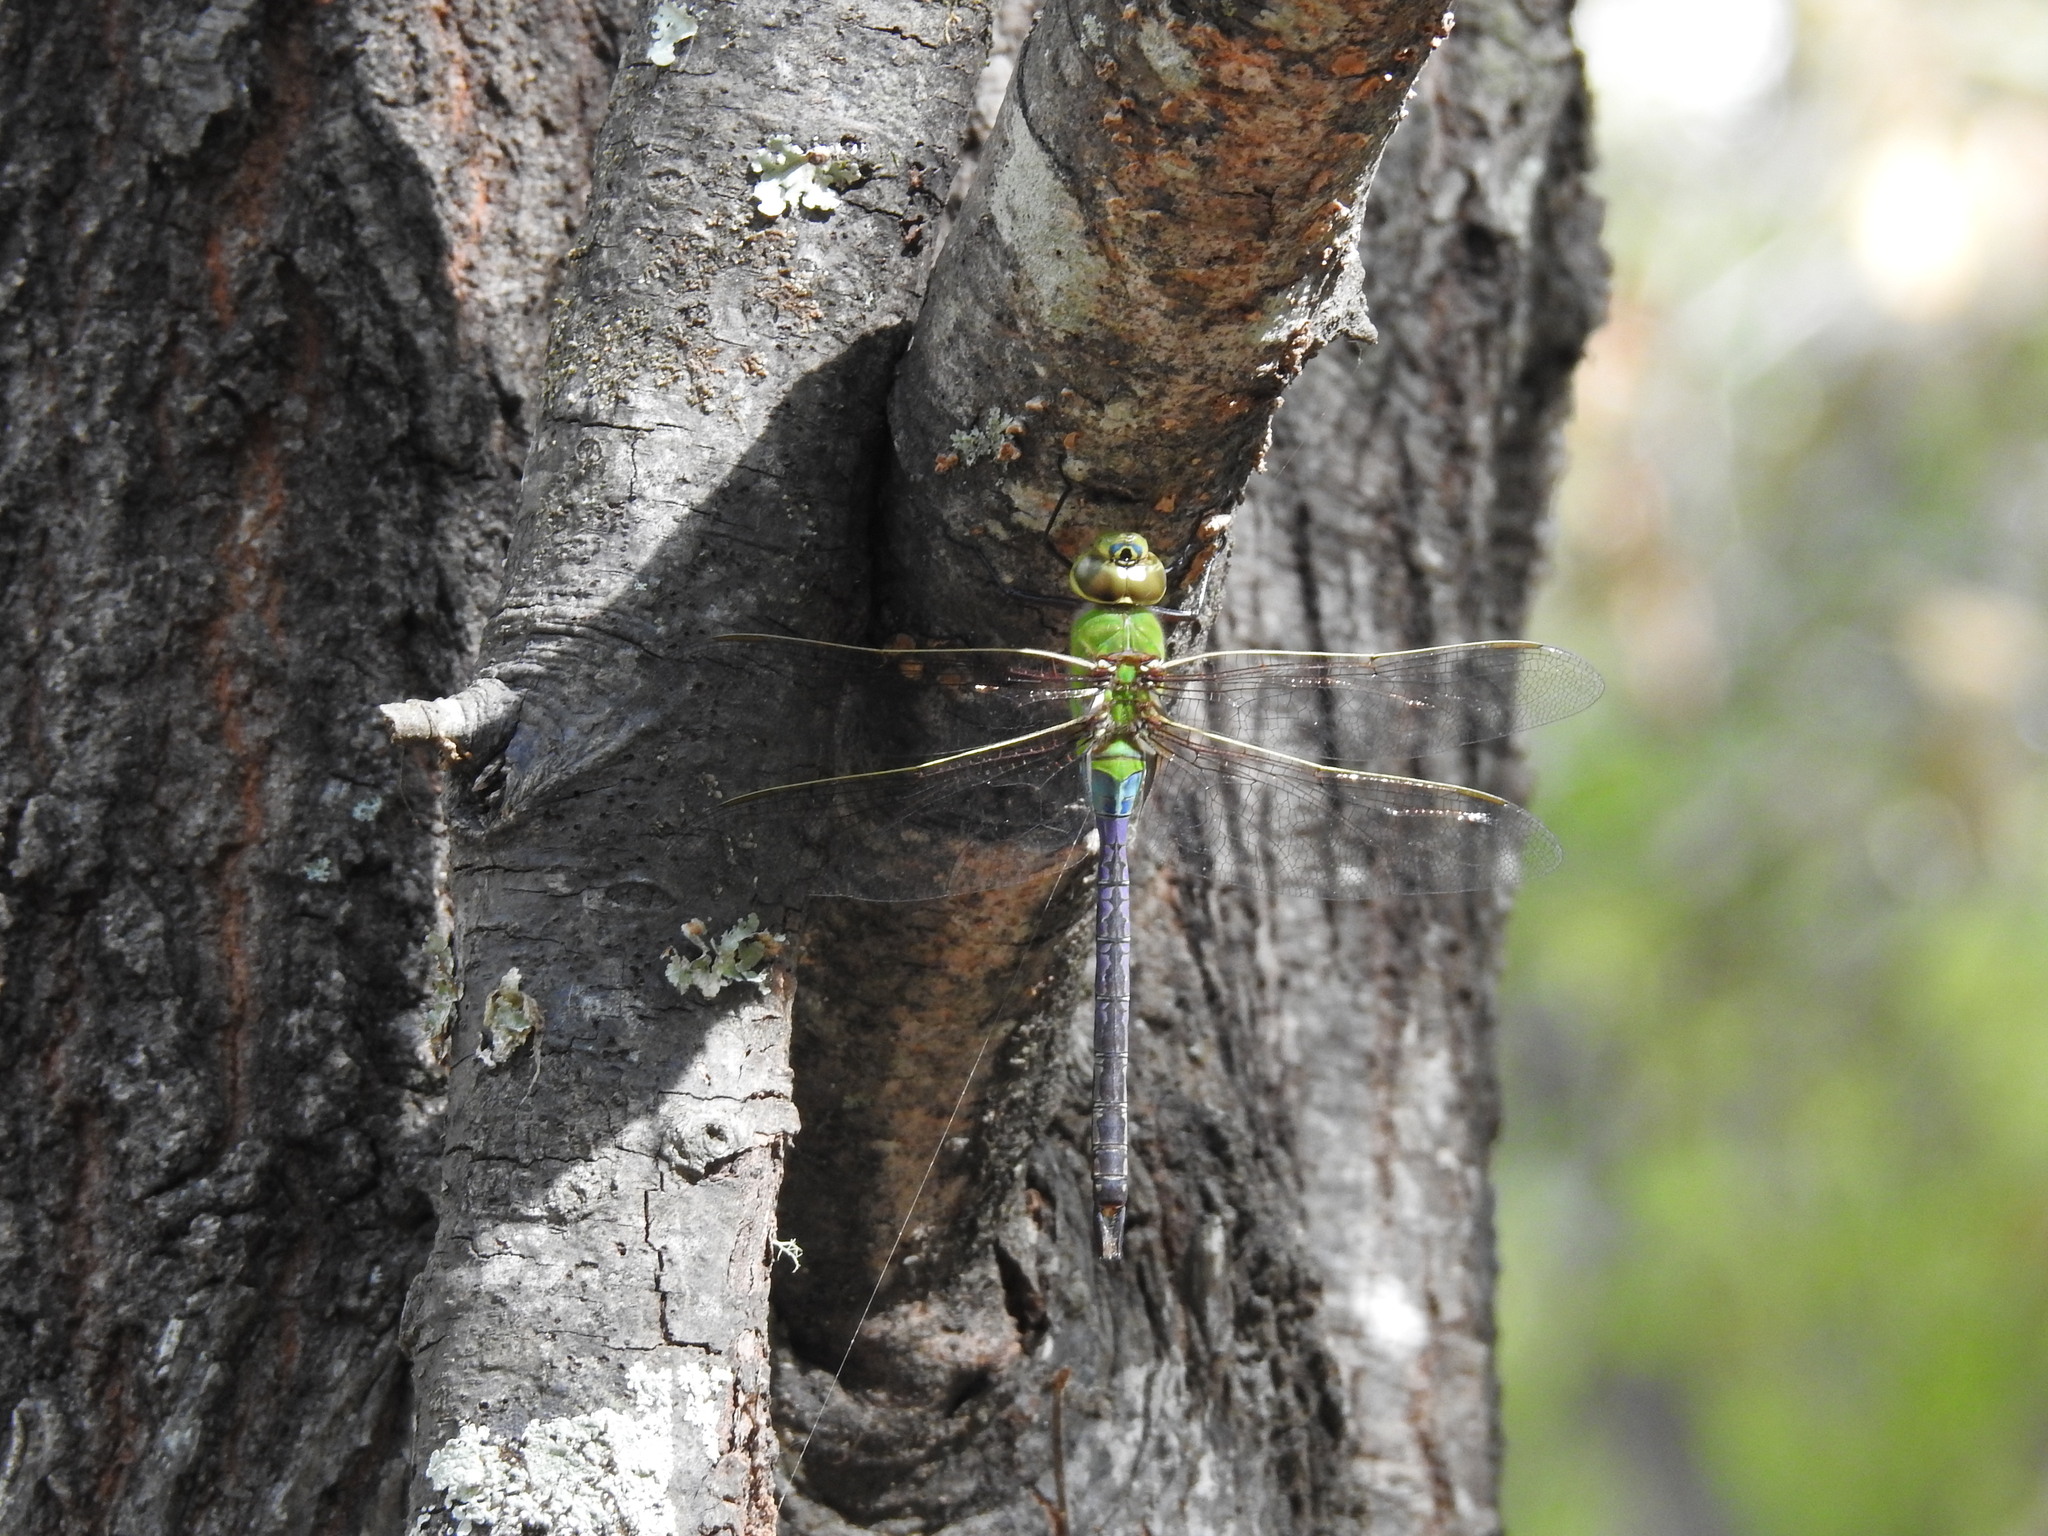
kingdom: Animalia
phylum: Arthropoda
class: Insecta
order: Odonata
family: Aeshnidae
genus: Anax
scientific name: Anax junius
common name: Common green darner
